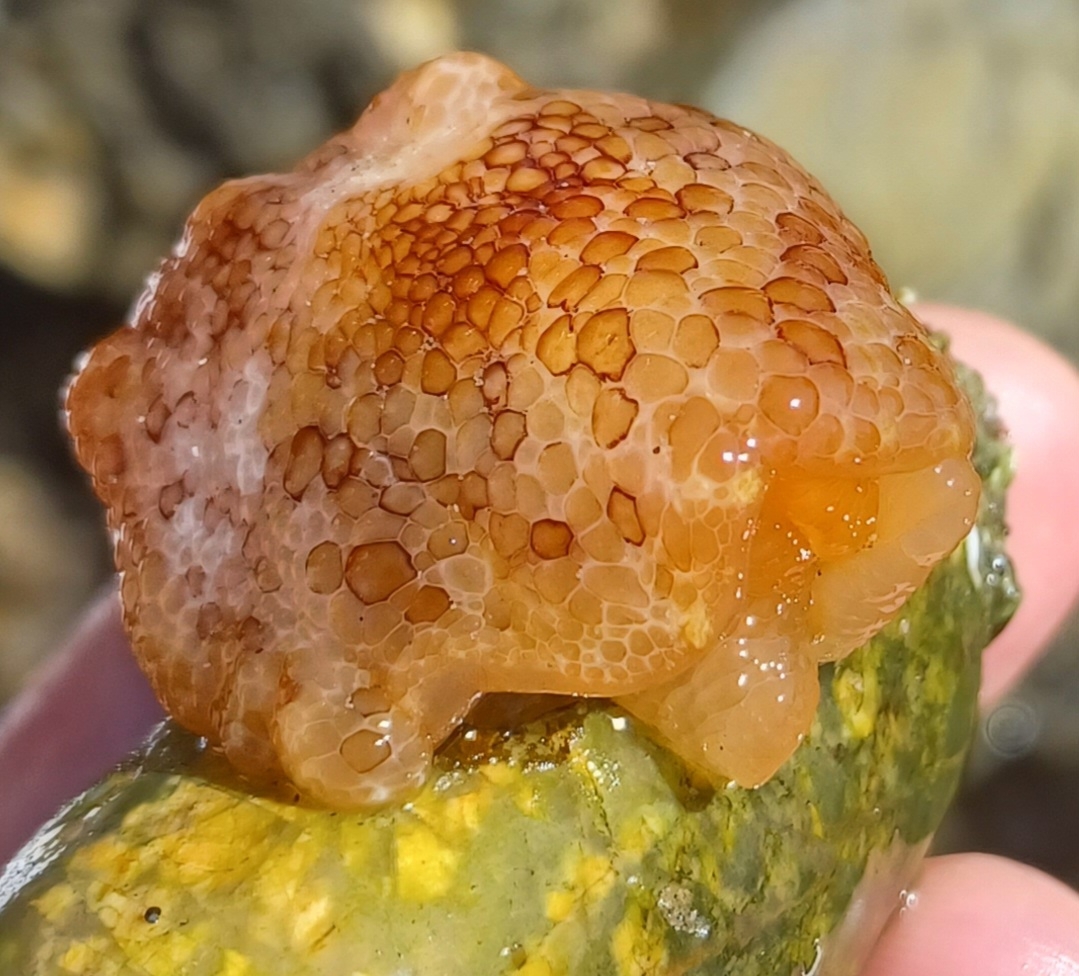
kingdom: Animalia
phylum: Mollusca
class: Gastropoda
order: Pleurobranchida
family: Pleurobranchidae
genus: Pleurobranchus
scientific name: Pleurobranchus peronii
